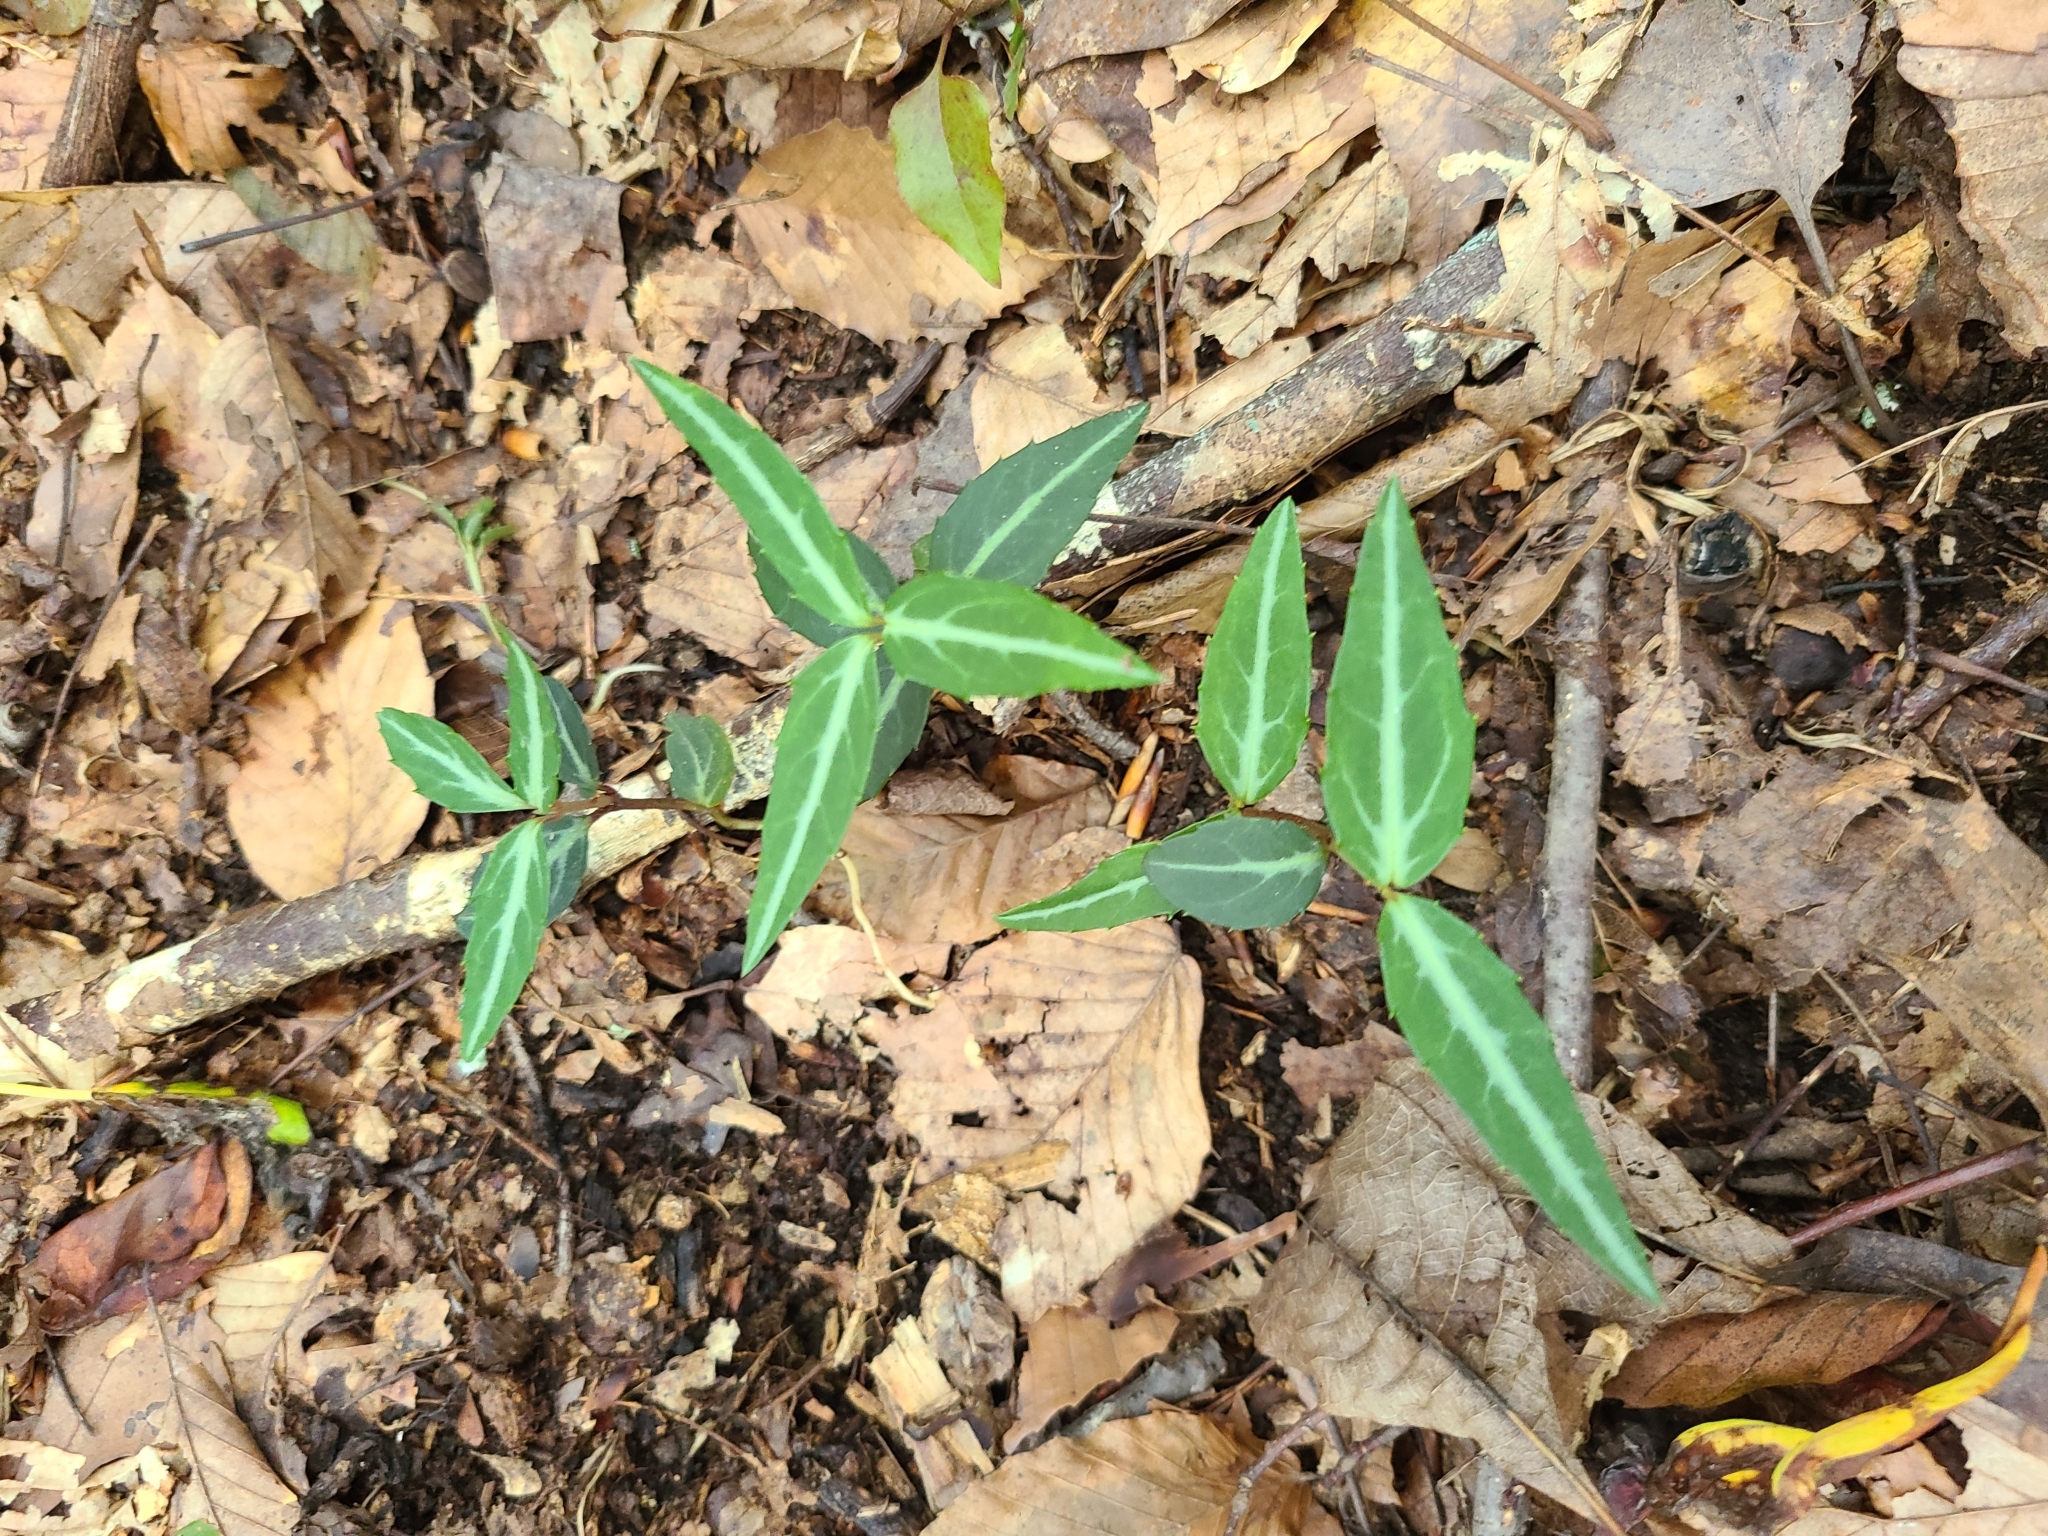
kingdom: Plantae
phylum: Tracheophyta
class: Magnoliopsida
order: Ericales
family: Ericaceae
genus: Chimaphila
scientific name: Chimaphila maculata
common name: Spotted pipsissewa
